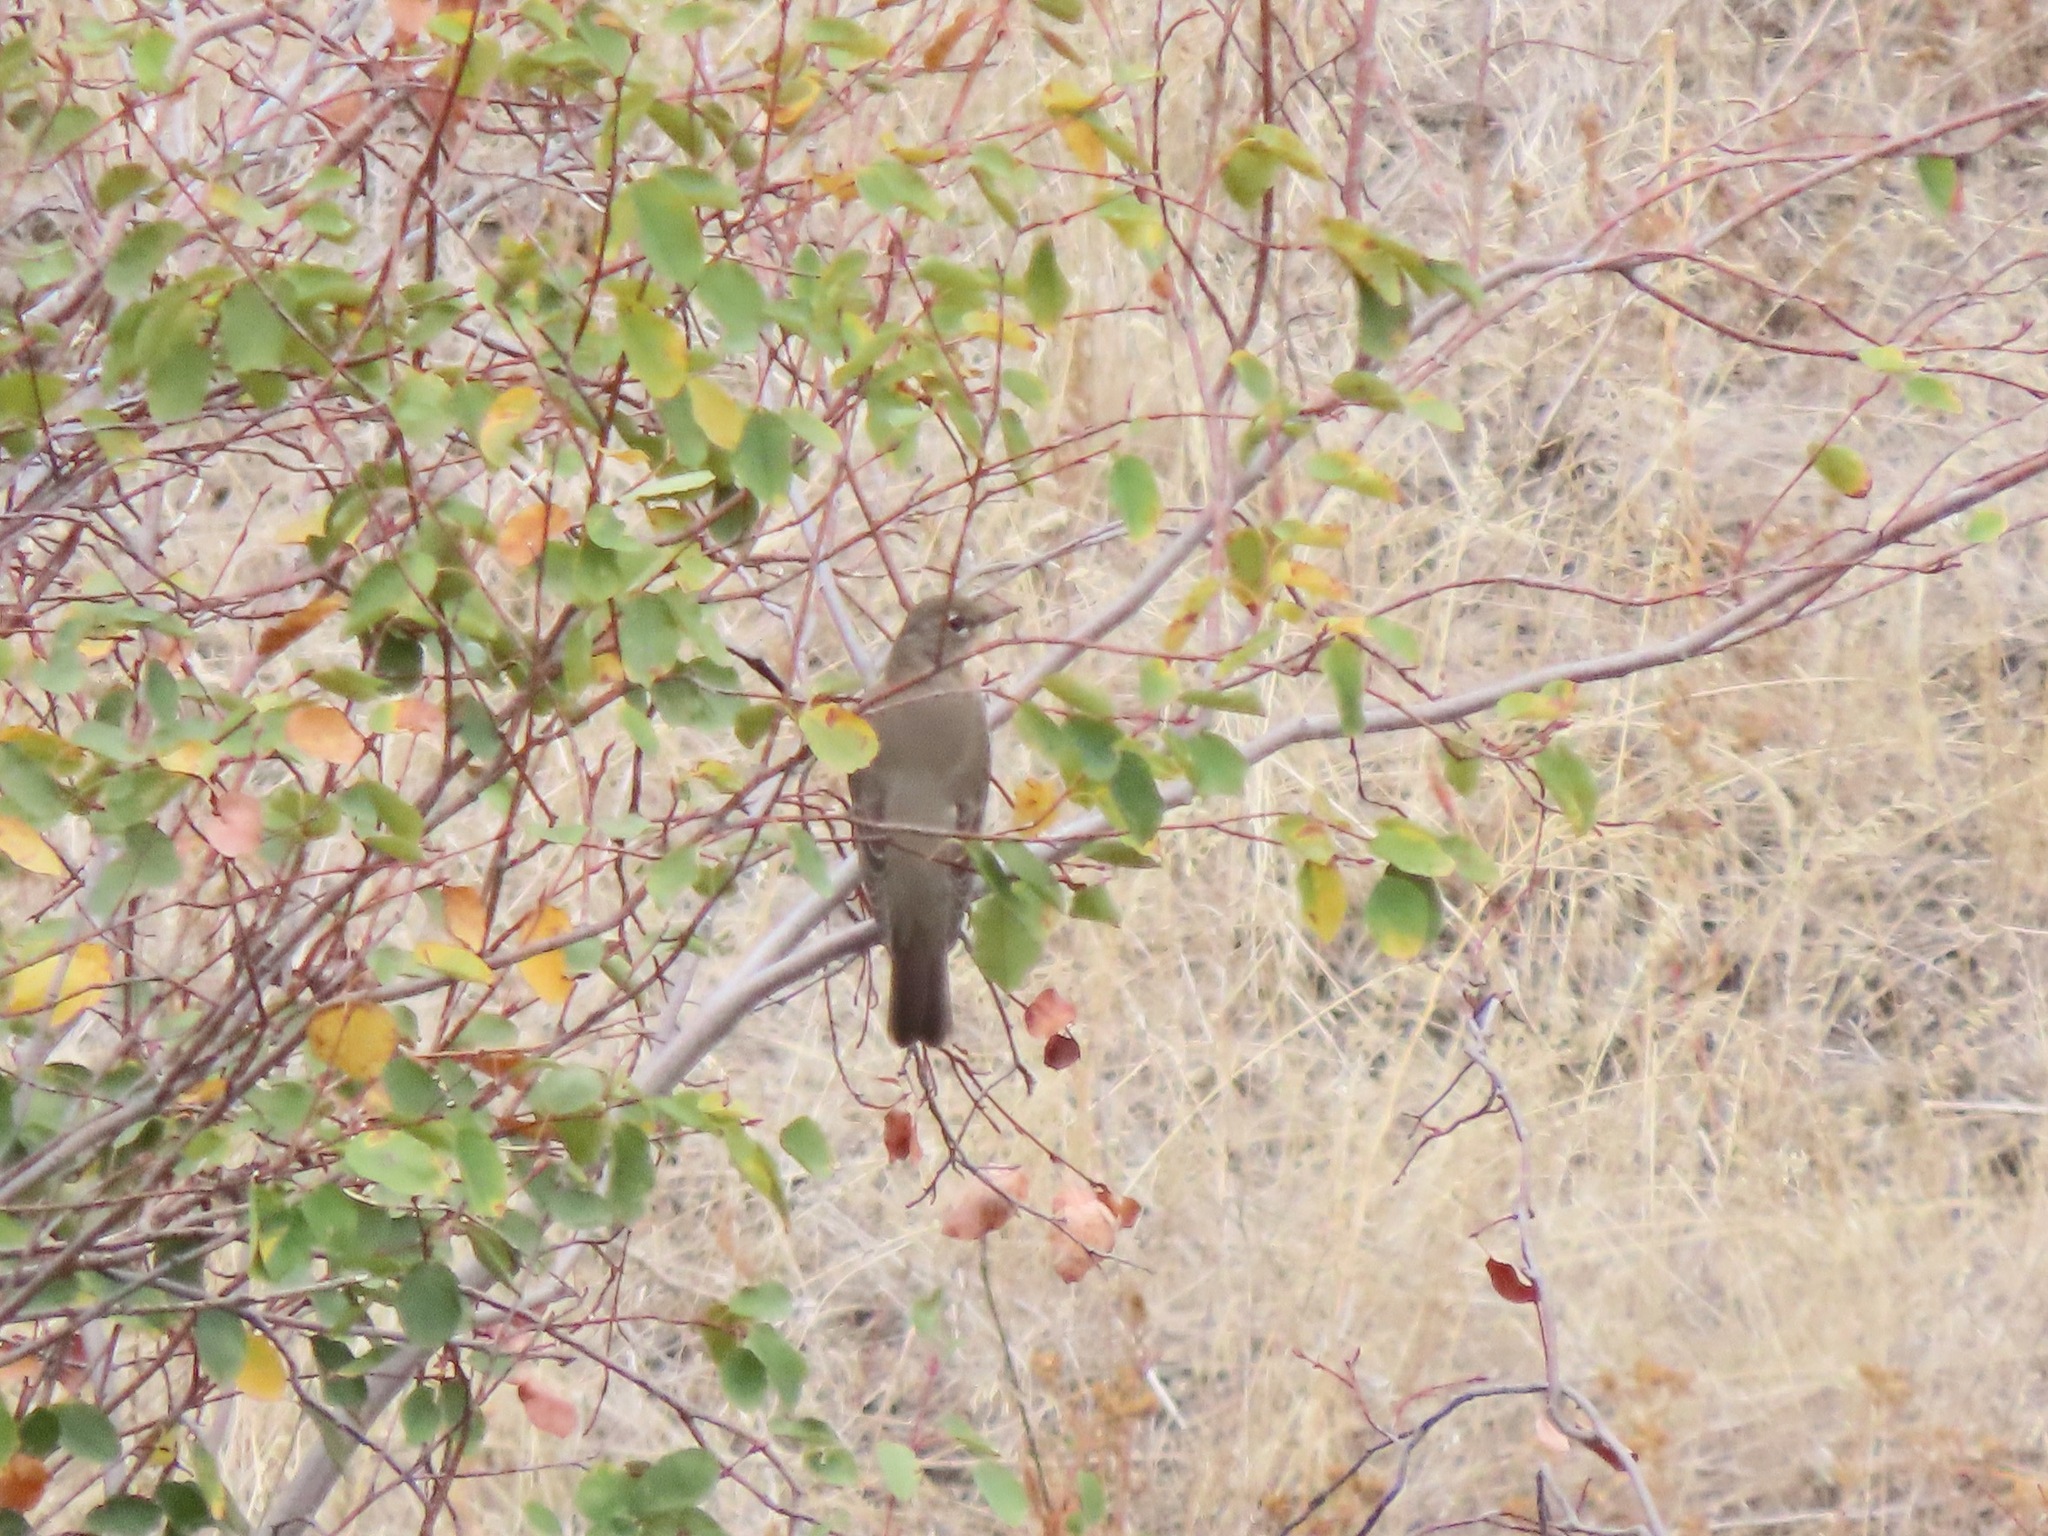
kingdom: Animalia
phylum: Chordata
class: Aves
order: Passeriformes
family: Turdidae
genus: Turdus
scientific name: Turdus migratorius
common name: American robin
